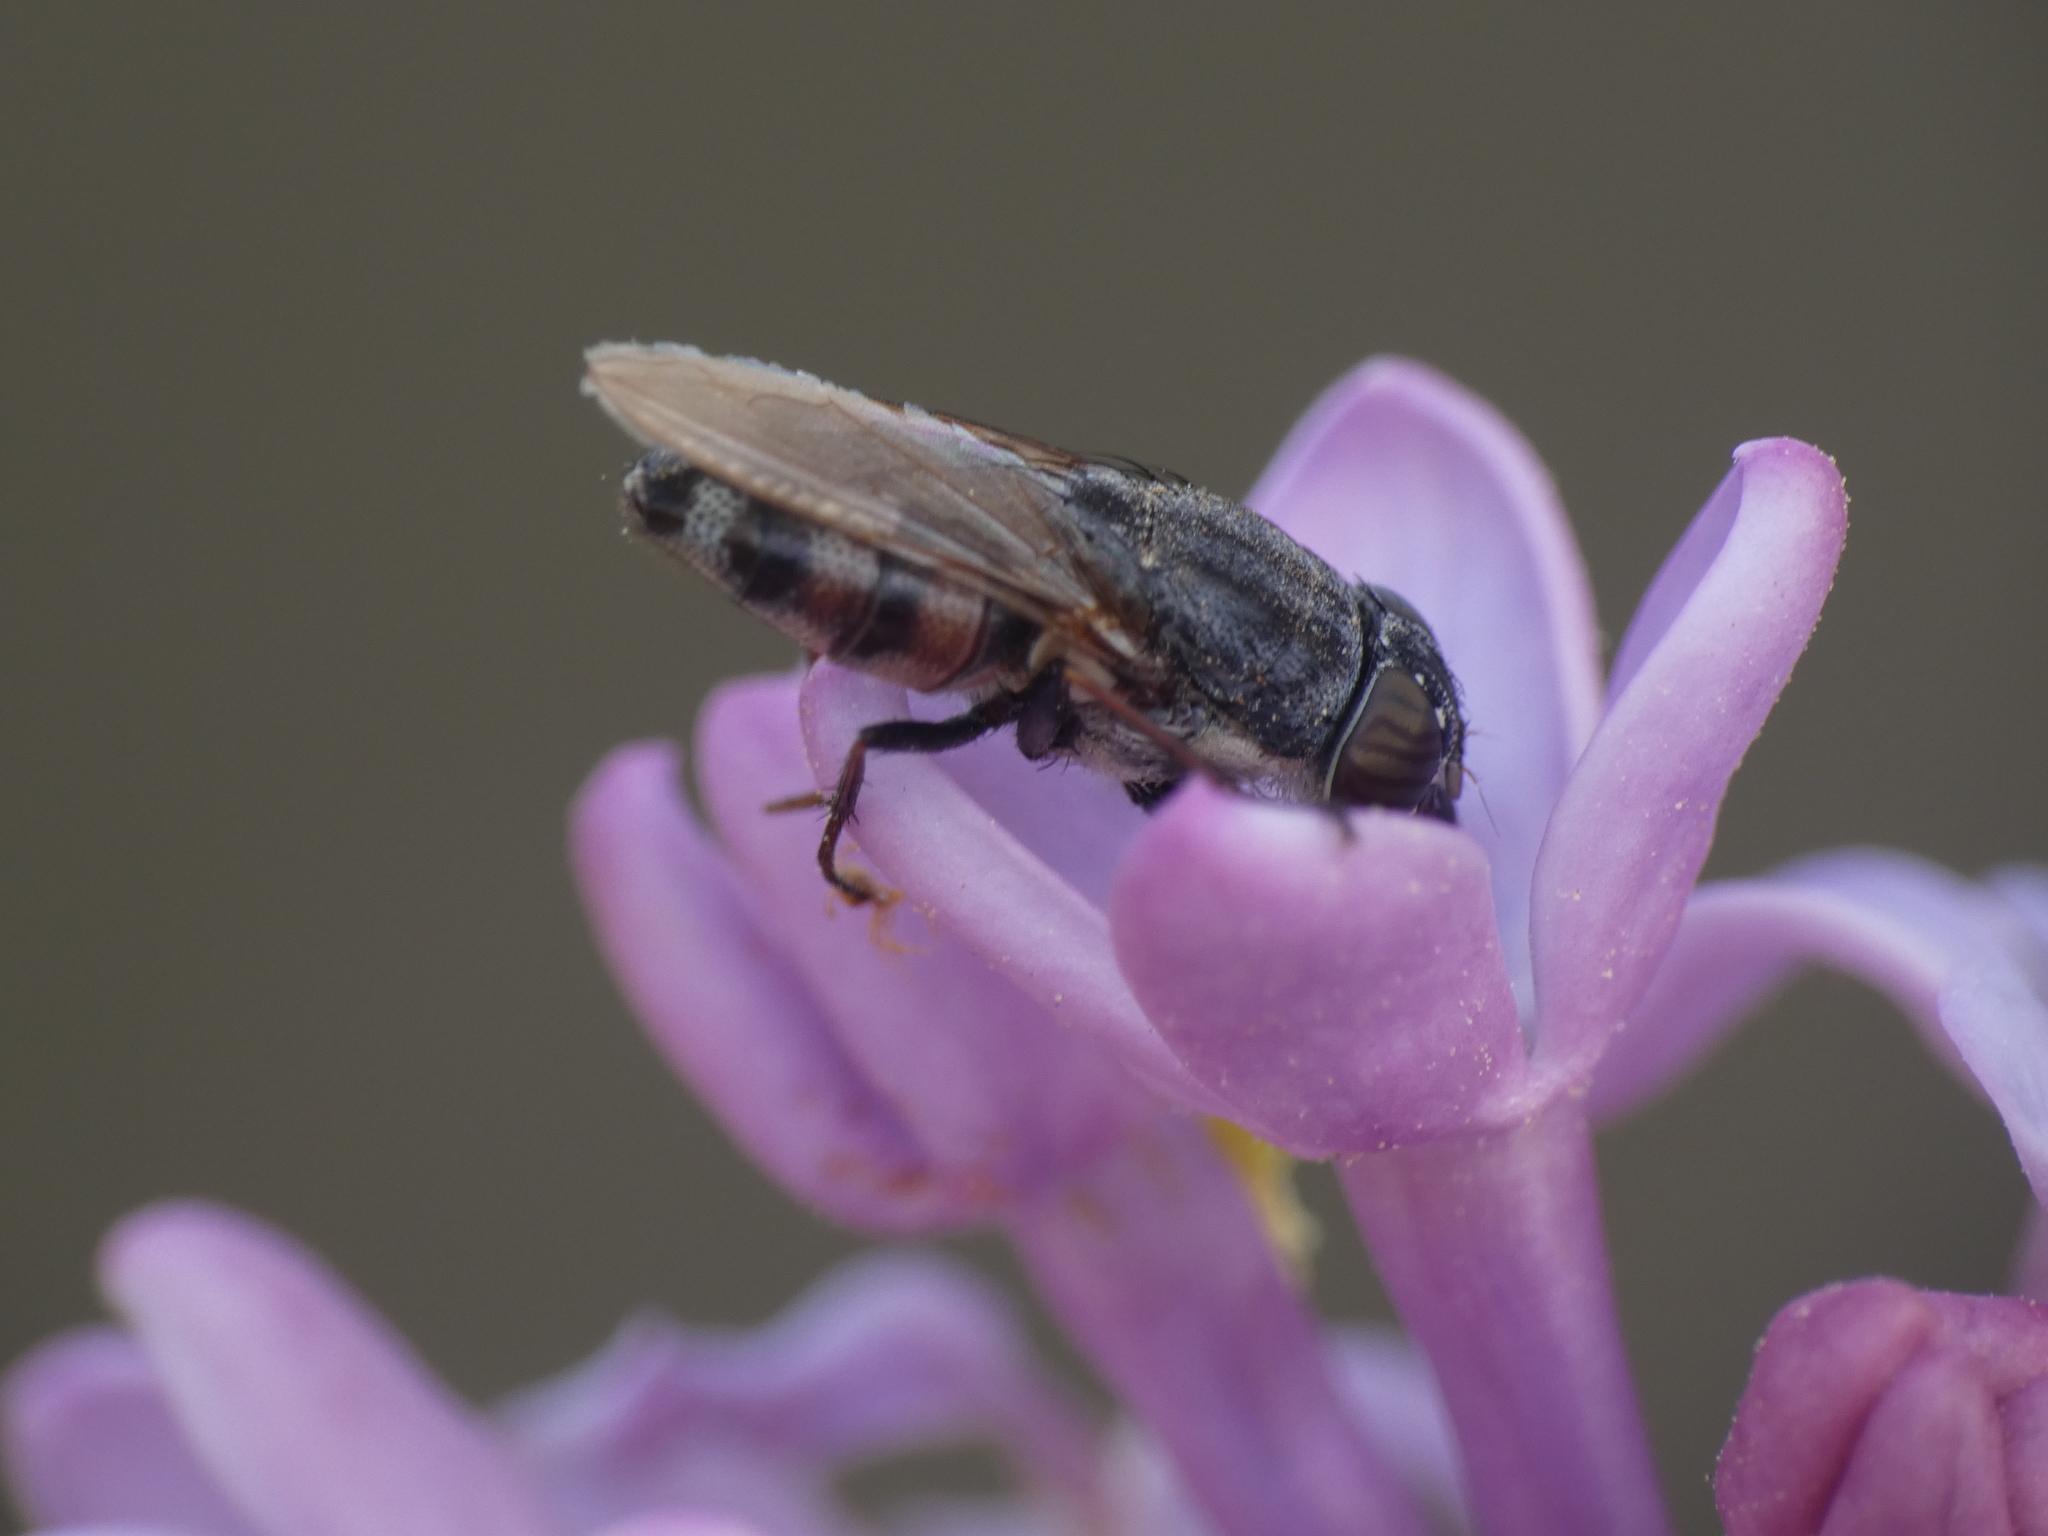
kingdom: Animalia
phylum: Arthropoda
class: Insecta
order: Diptera
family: Calliphoridae
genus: Stomorhina
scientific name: Stomorhina lunata
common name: Locust blowfly
